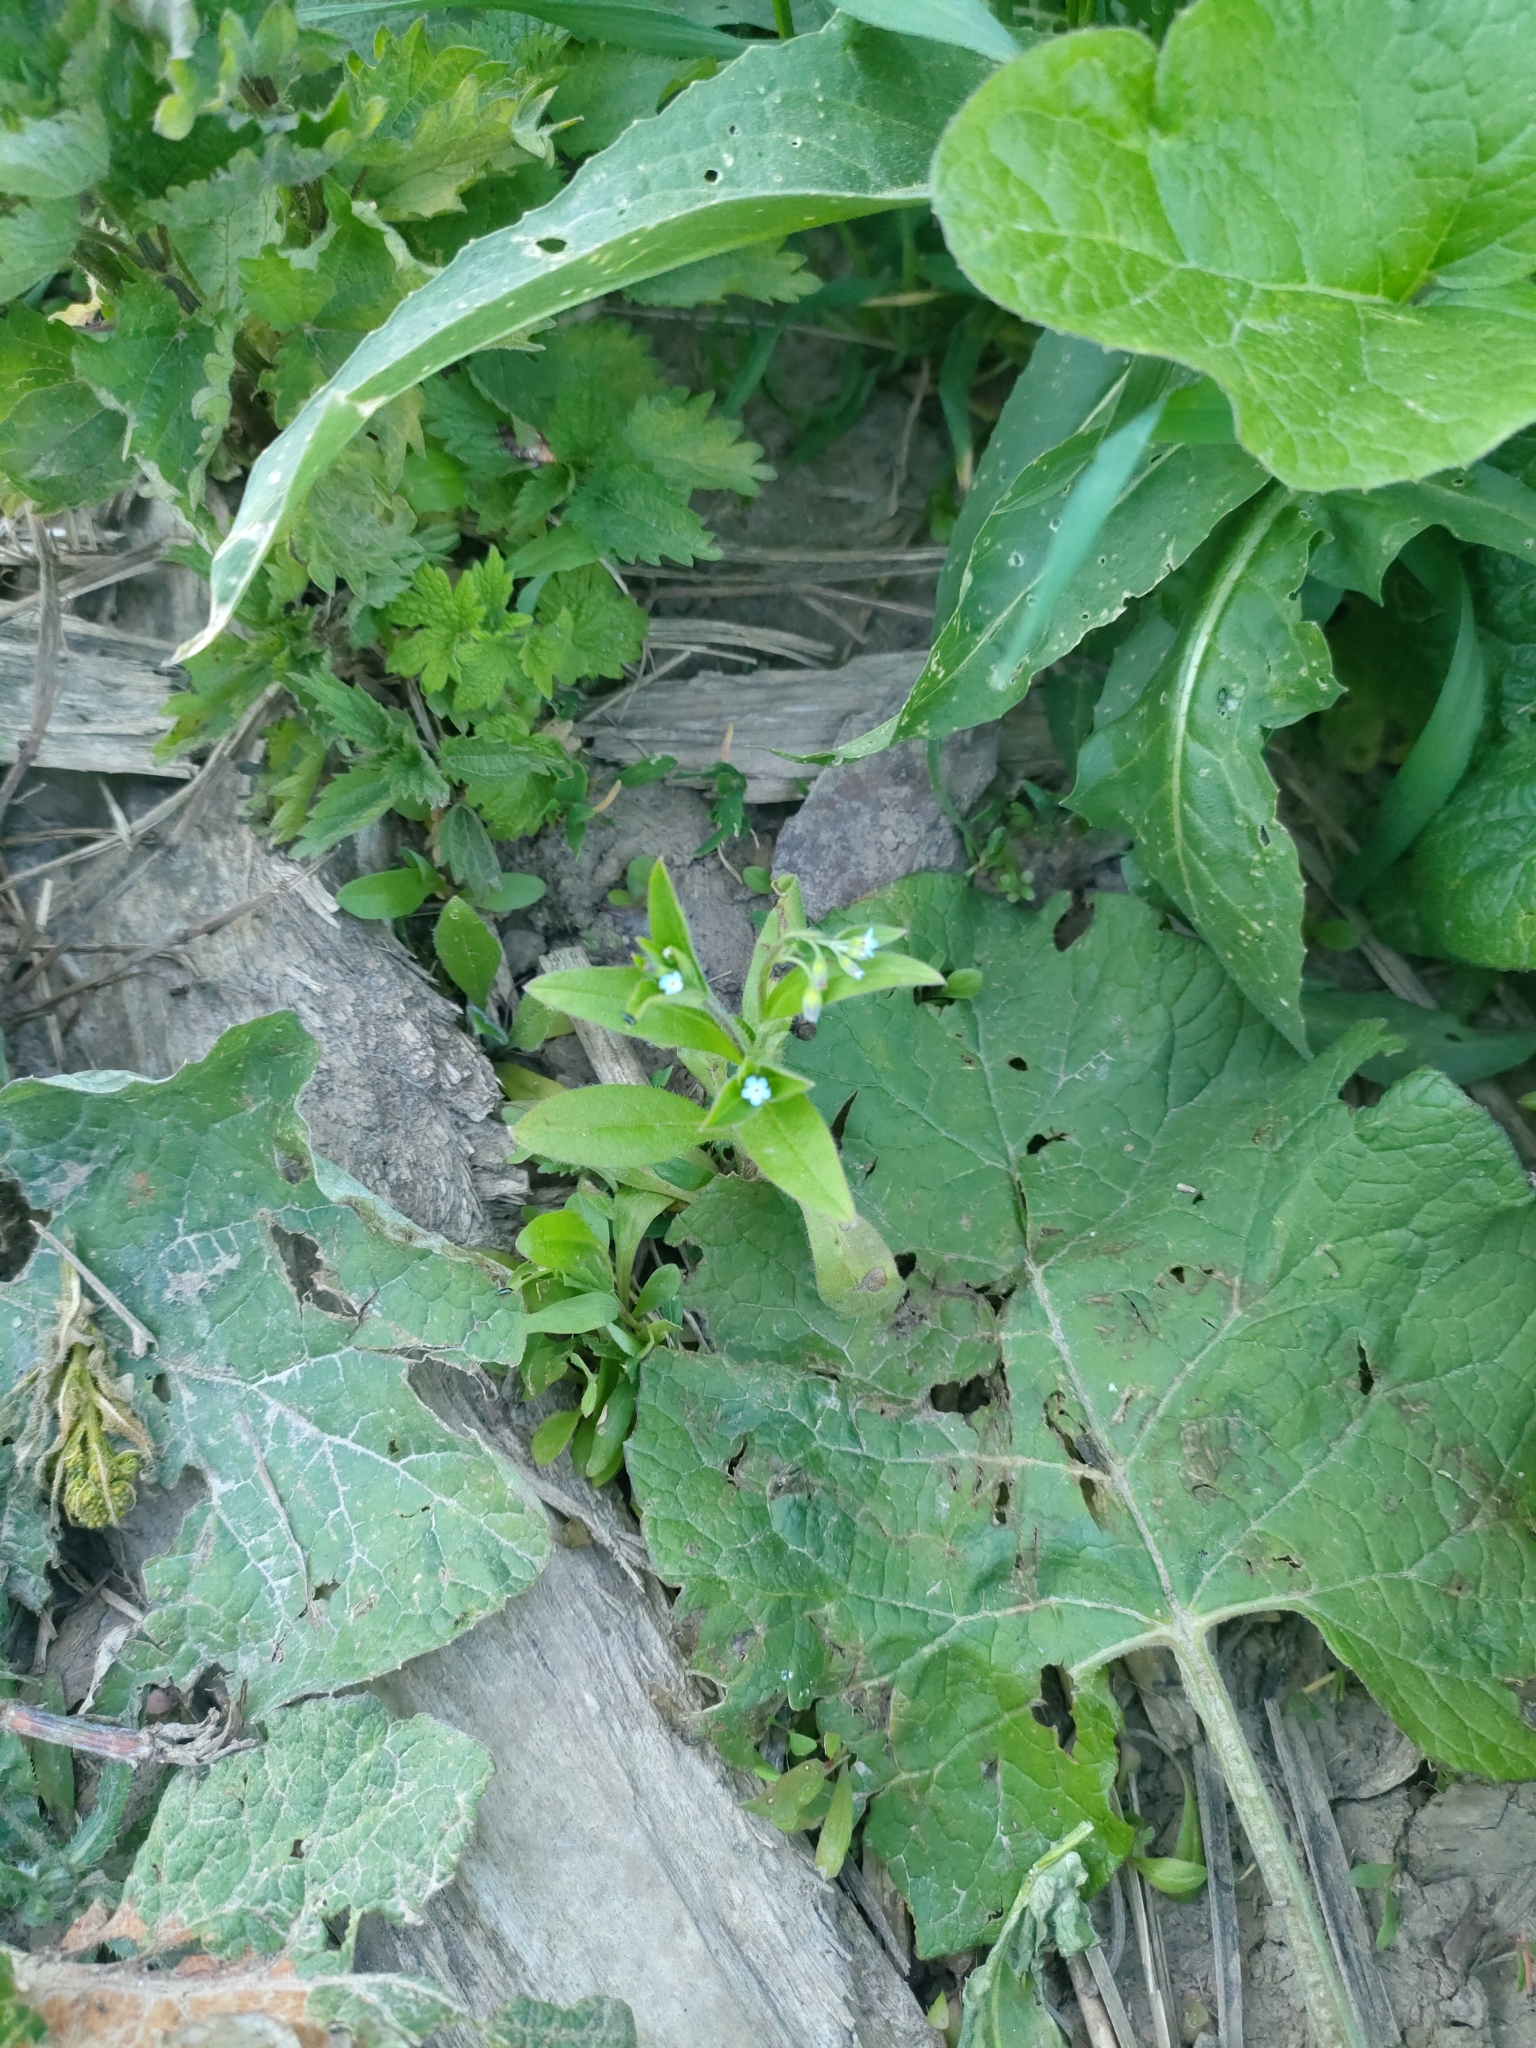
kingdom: Plantae
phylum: Tracheophyta
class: Magnoliopsida
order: Boraginales
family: Boraginaceae
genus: Myosotis
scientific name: Myosotis sparsiflora
